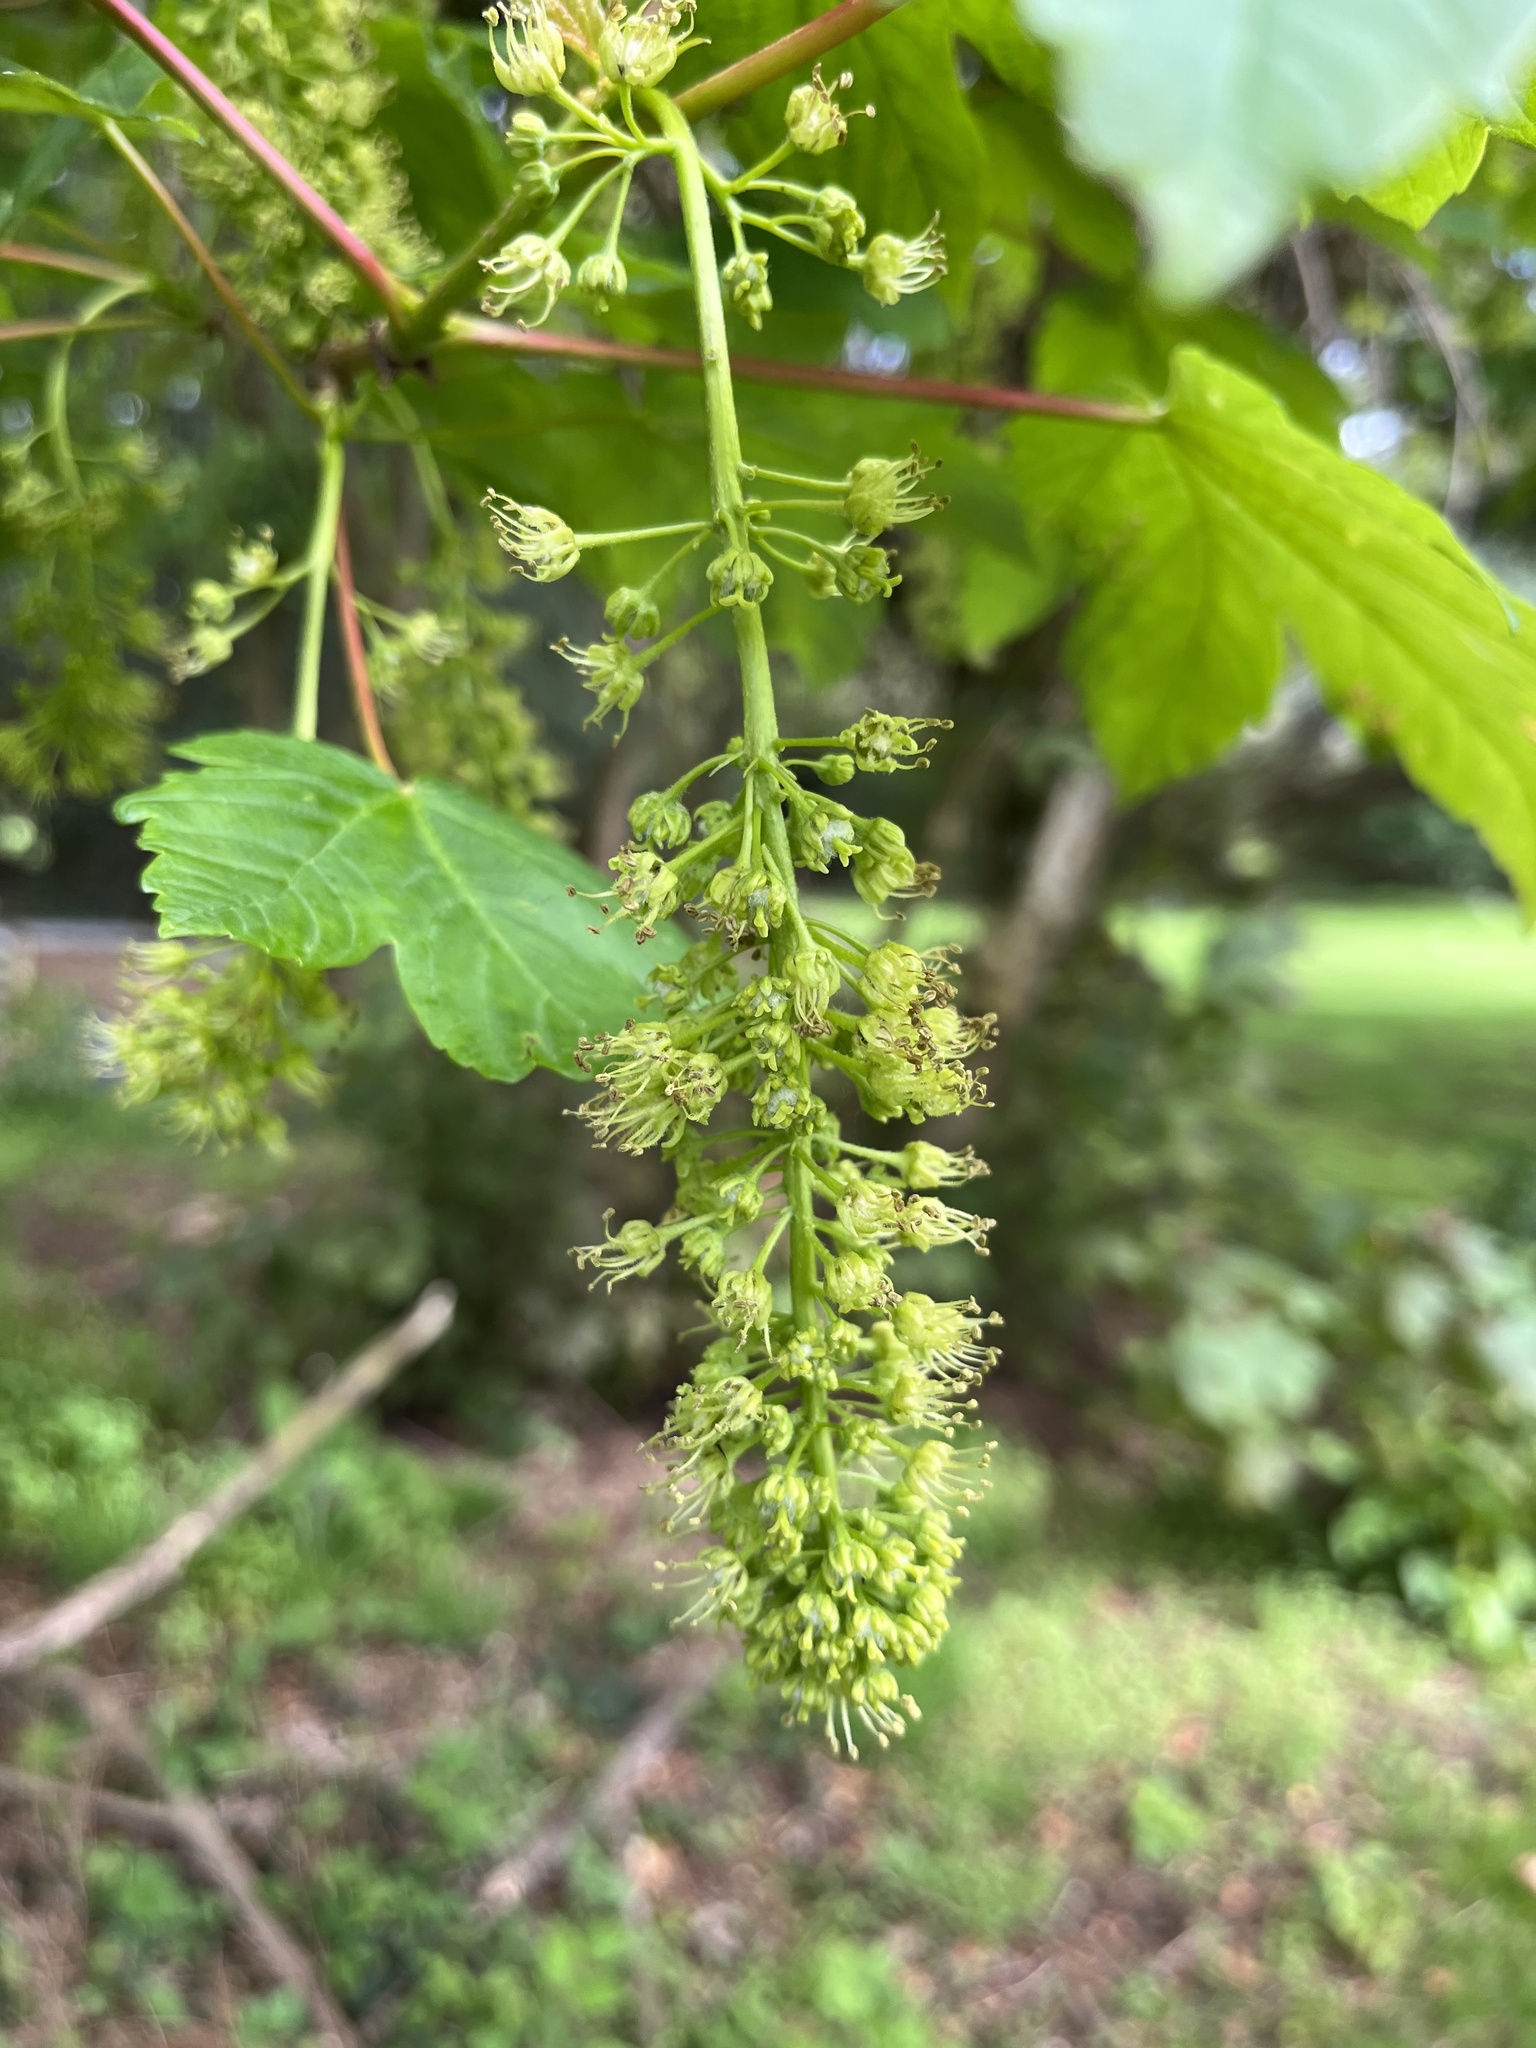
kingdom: Plantae
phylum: Tracheophyta
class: Magnoliopsida
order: Sapindales
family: Sapindaceae
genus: Acer
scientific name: Acer pseudoplatanus
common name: Sycamore
